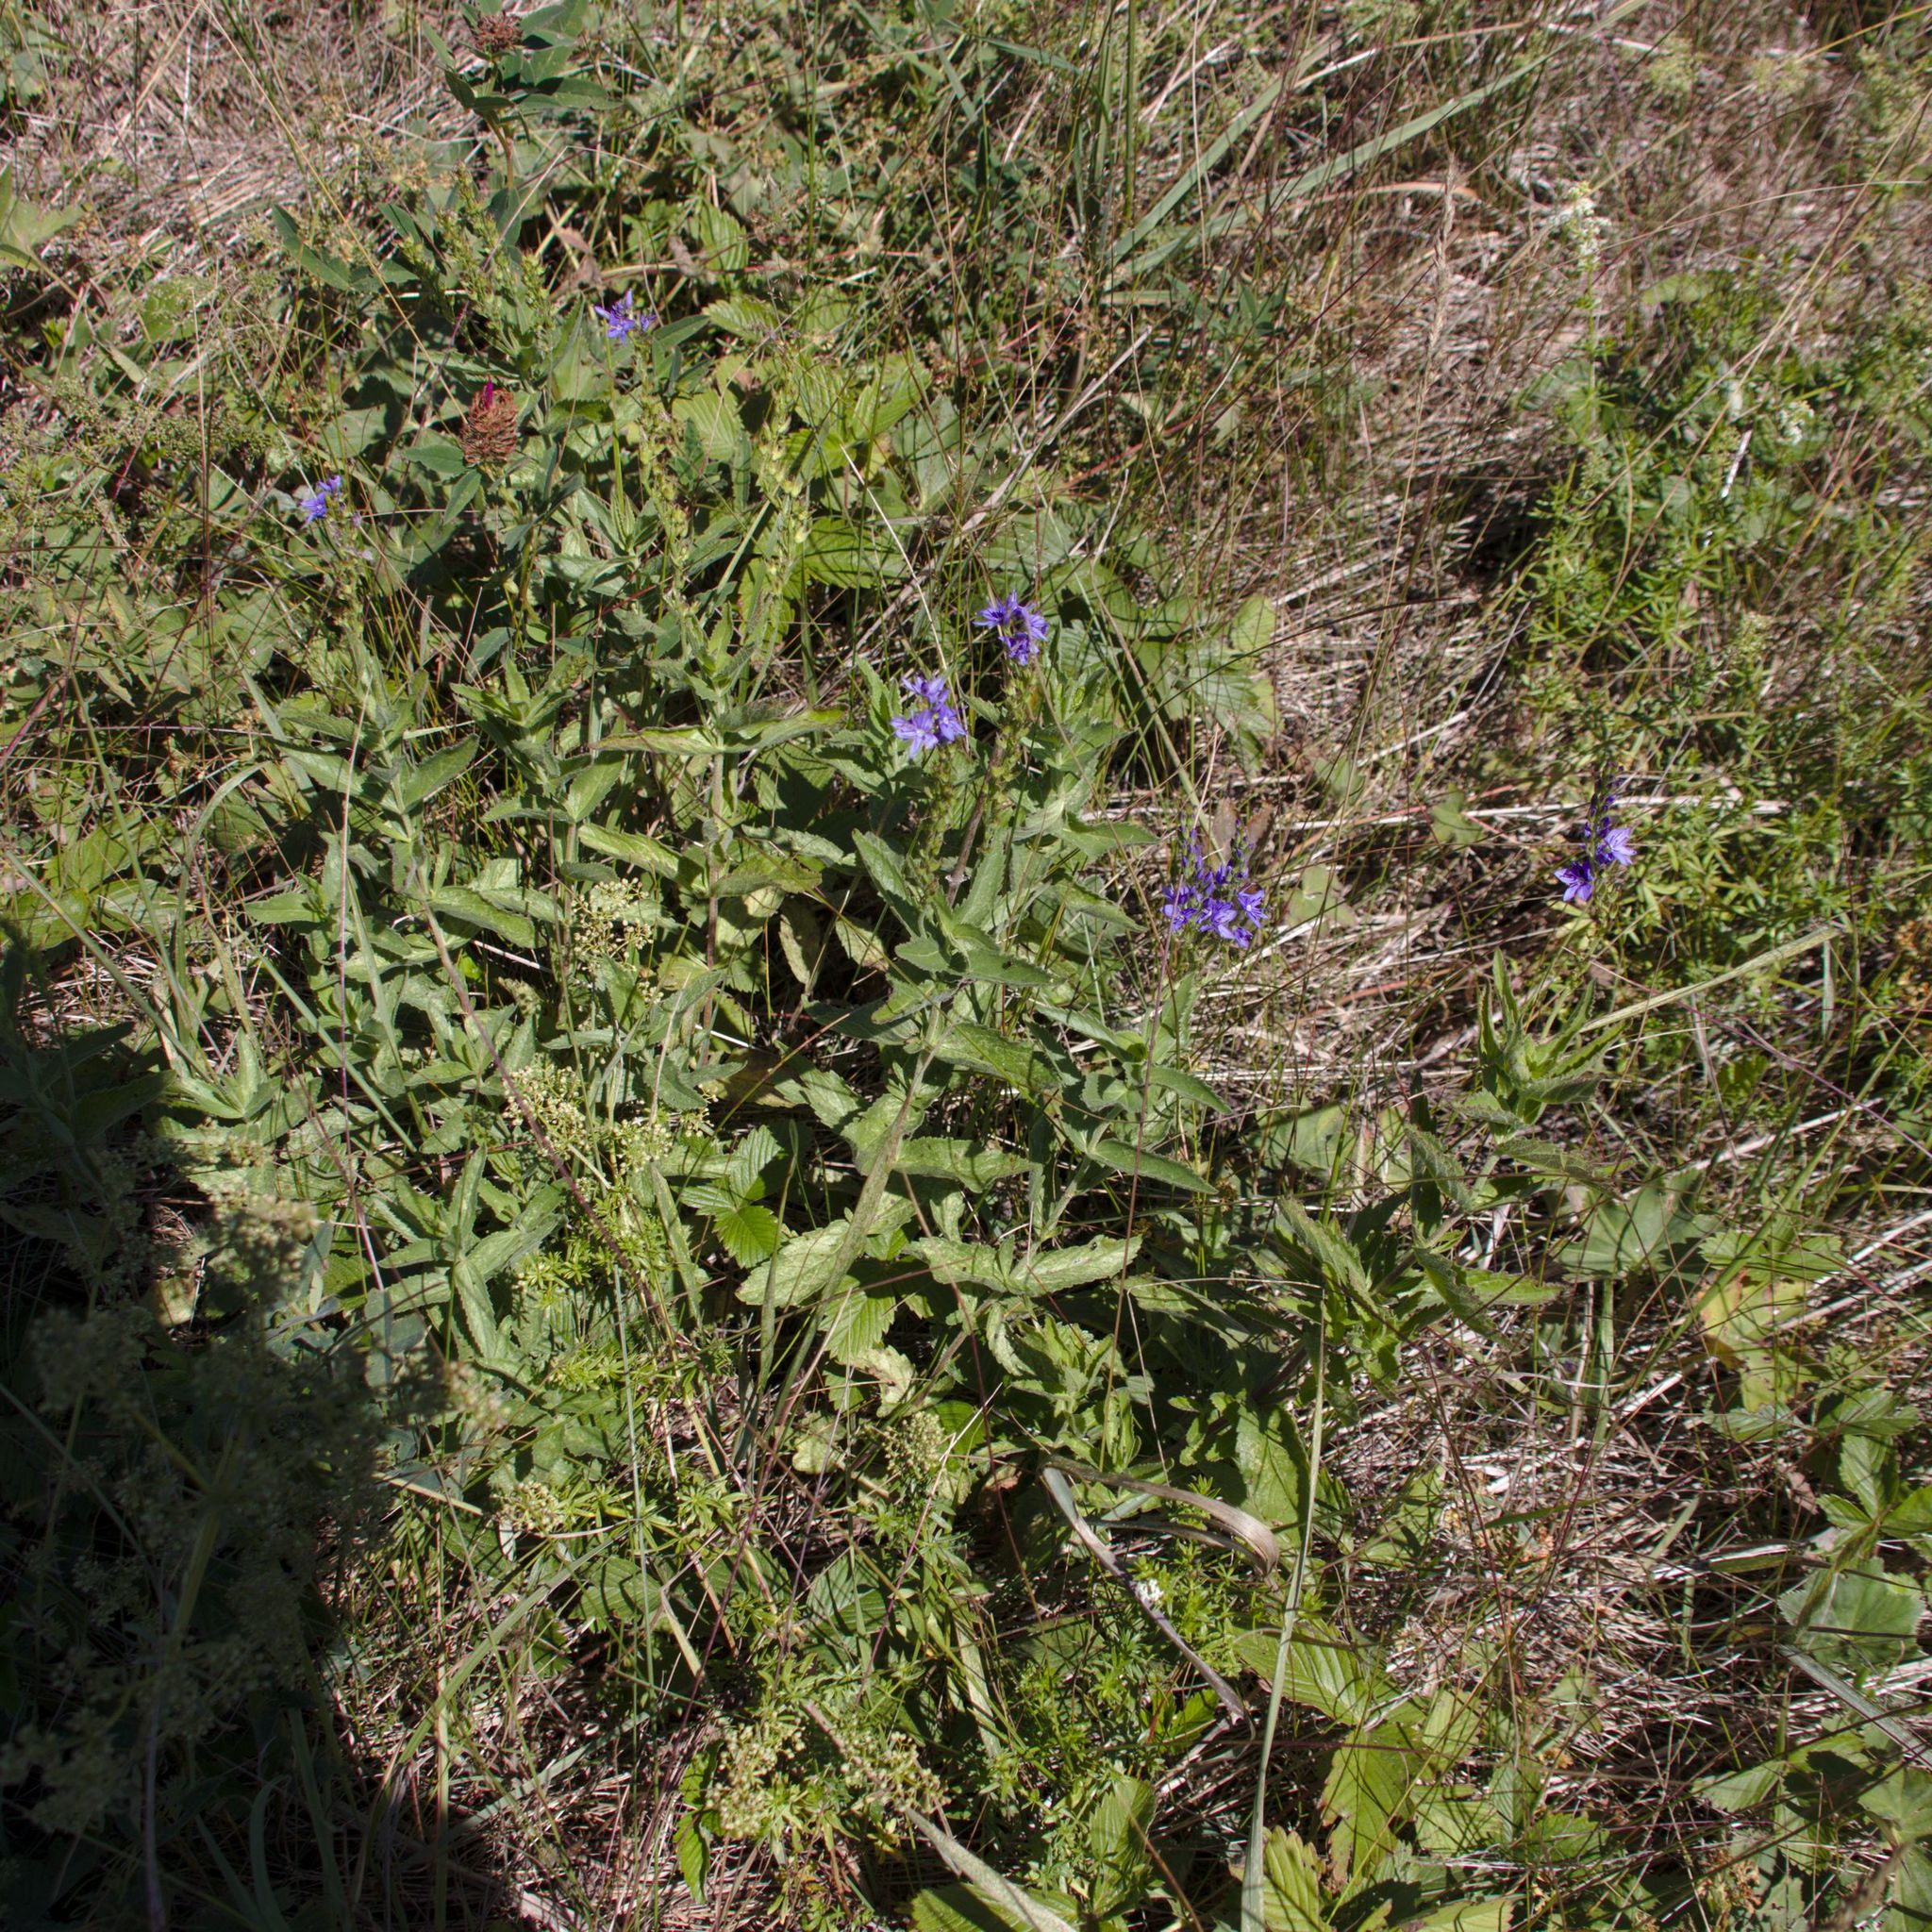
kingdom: Plantae
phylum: Tracheophyta
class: Magnoliopsida
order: Lamiales
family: Plantaginaceae
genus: Veronica
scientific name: Veronica teucrium
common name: Large speedwell
